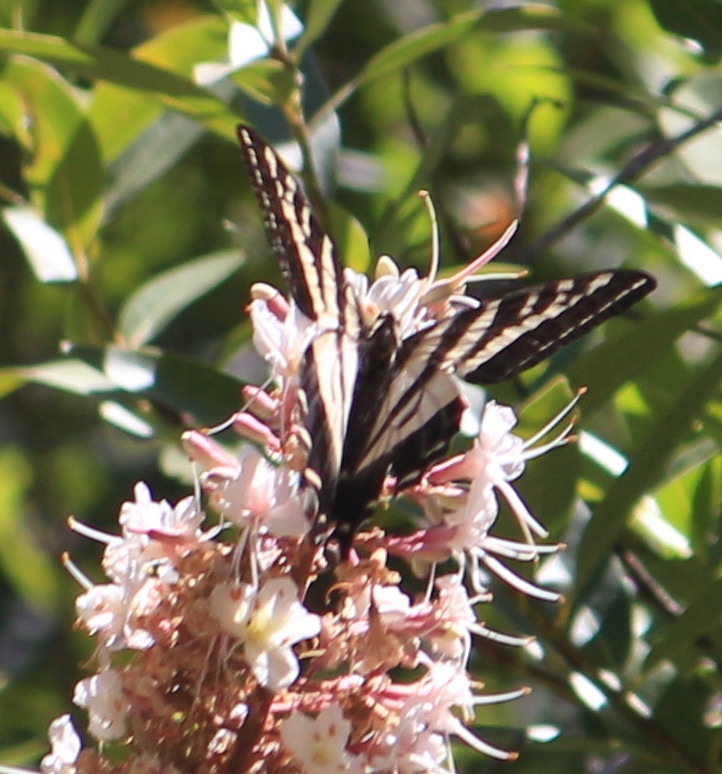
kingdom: Animalia
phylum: Arthropoda
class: Insecta
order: Lepidoptera
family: Papilionidae
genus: Papilio
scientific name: Papilio eurymedon
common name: Pale tiger swallowtail
